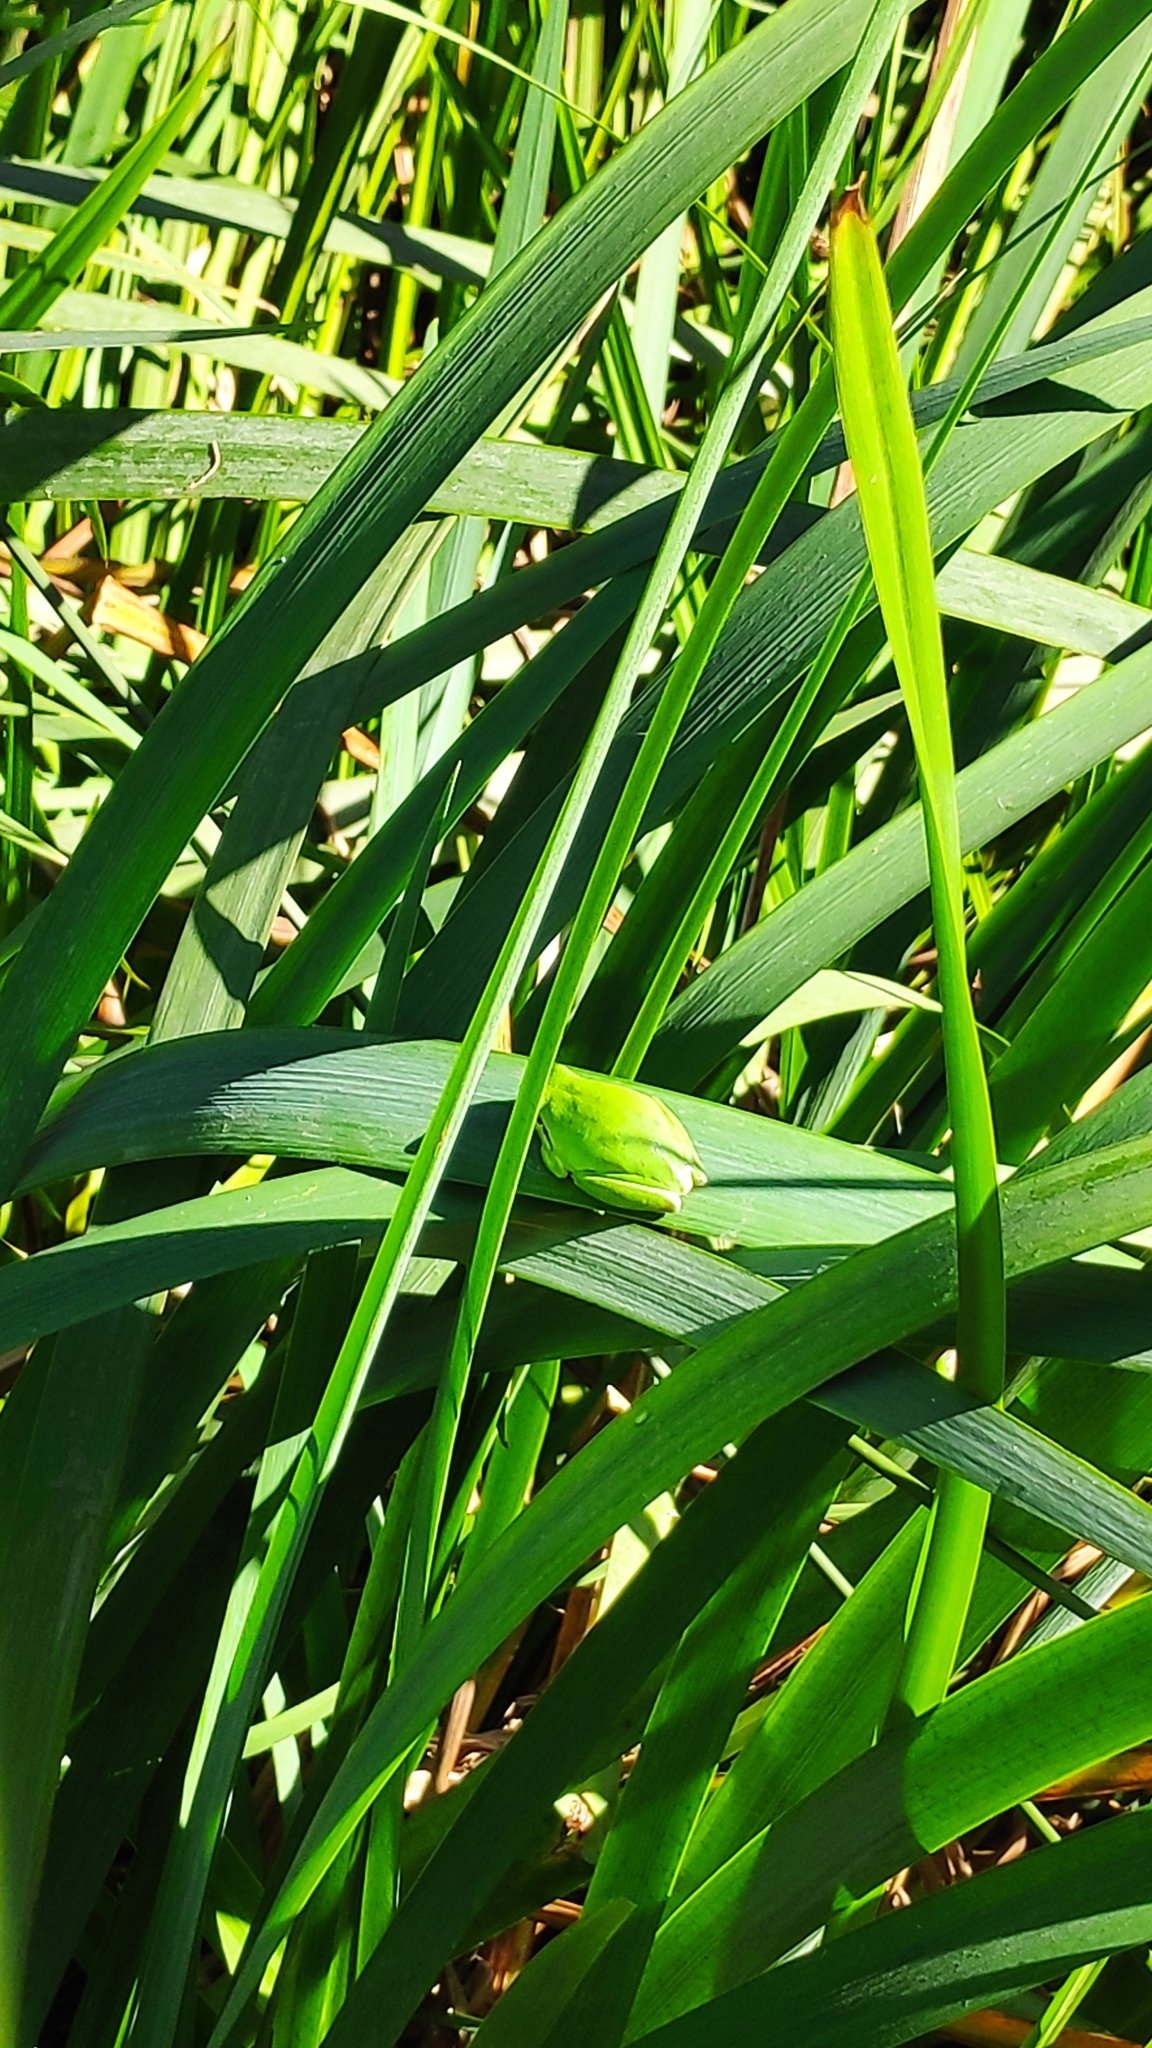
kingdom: Animalia
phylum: Chordata
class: Amphibia
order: Anura
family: Hylidae
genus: Hyla
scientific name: Hyla meridionalis
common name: Stripeless tree frog
